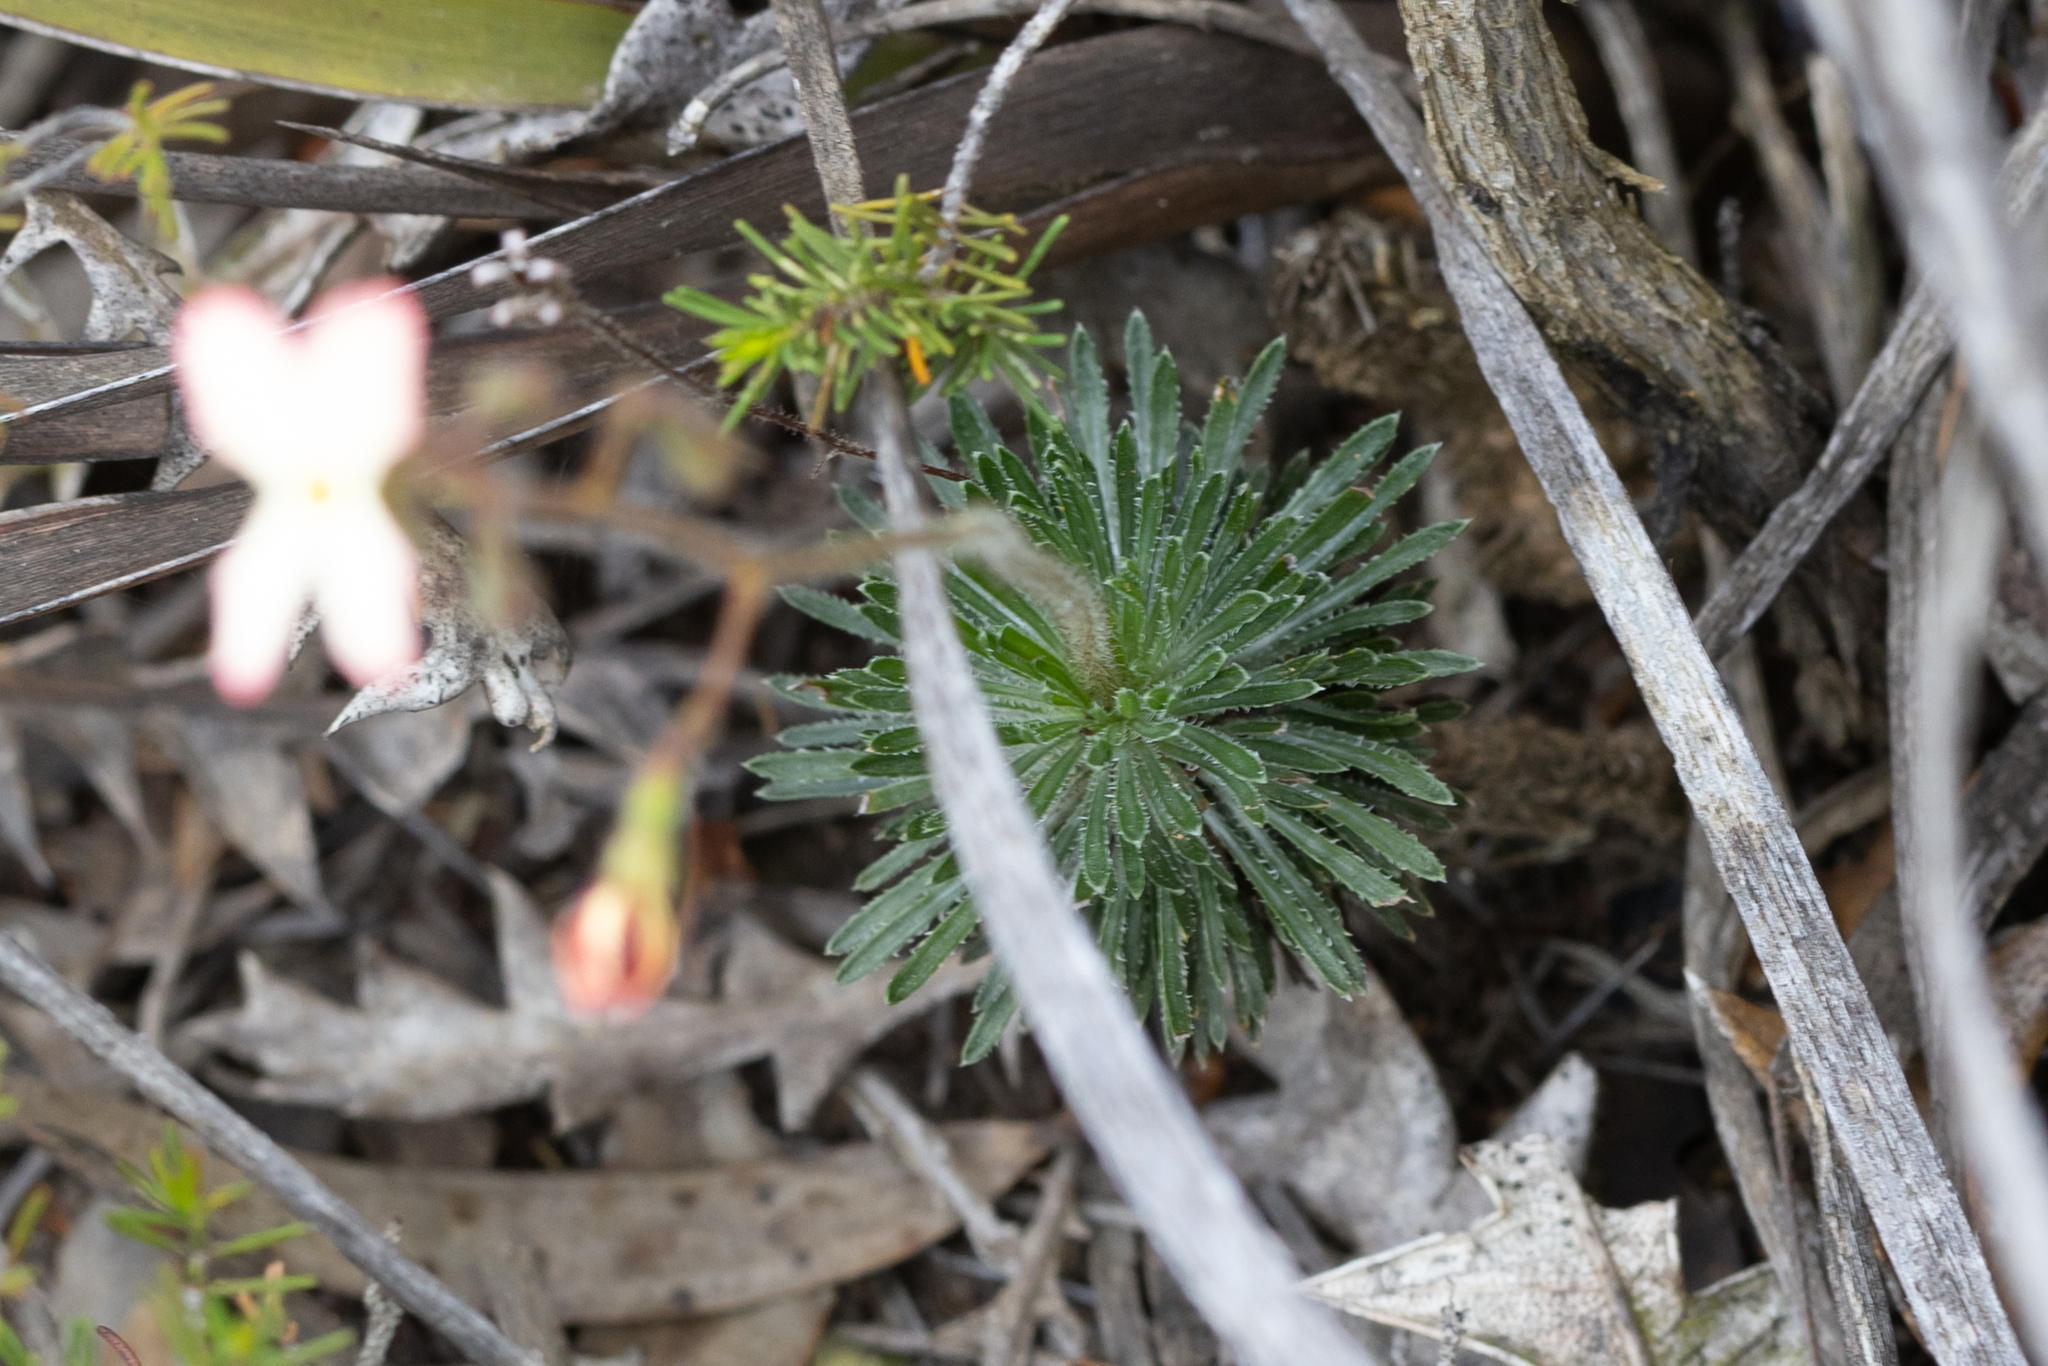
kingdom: Plantae
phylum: Tracheophyta
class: Magnoliopsida
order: Asterales
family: Stylidiaceae
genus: Stylidium
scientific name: Stylidium spathulatum
